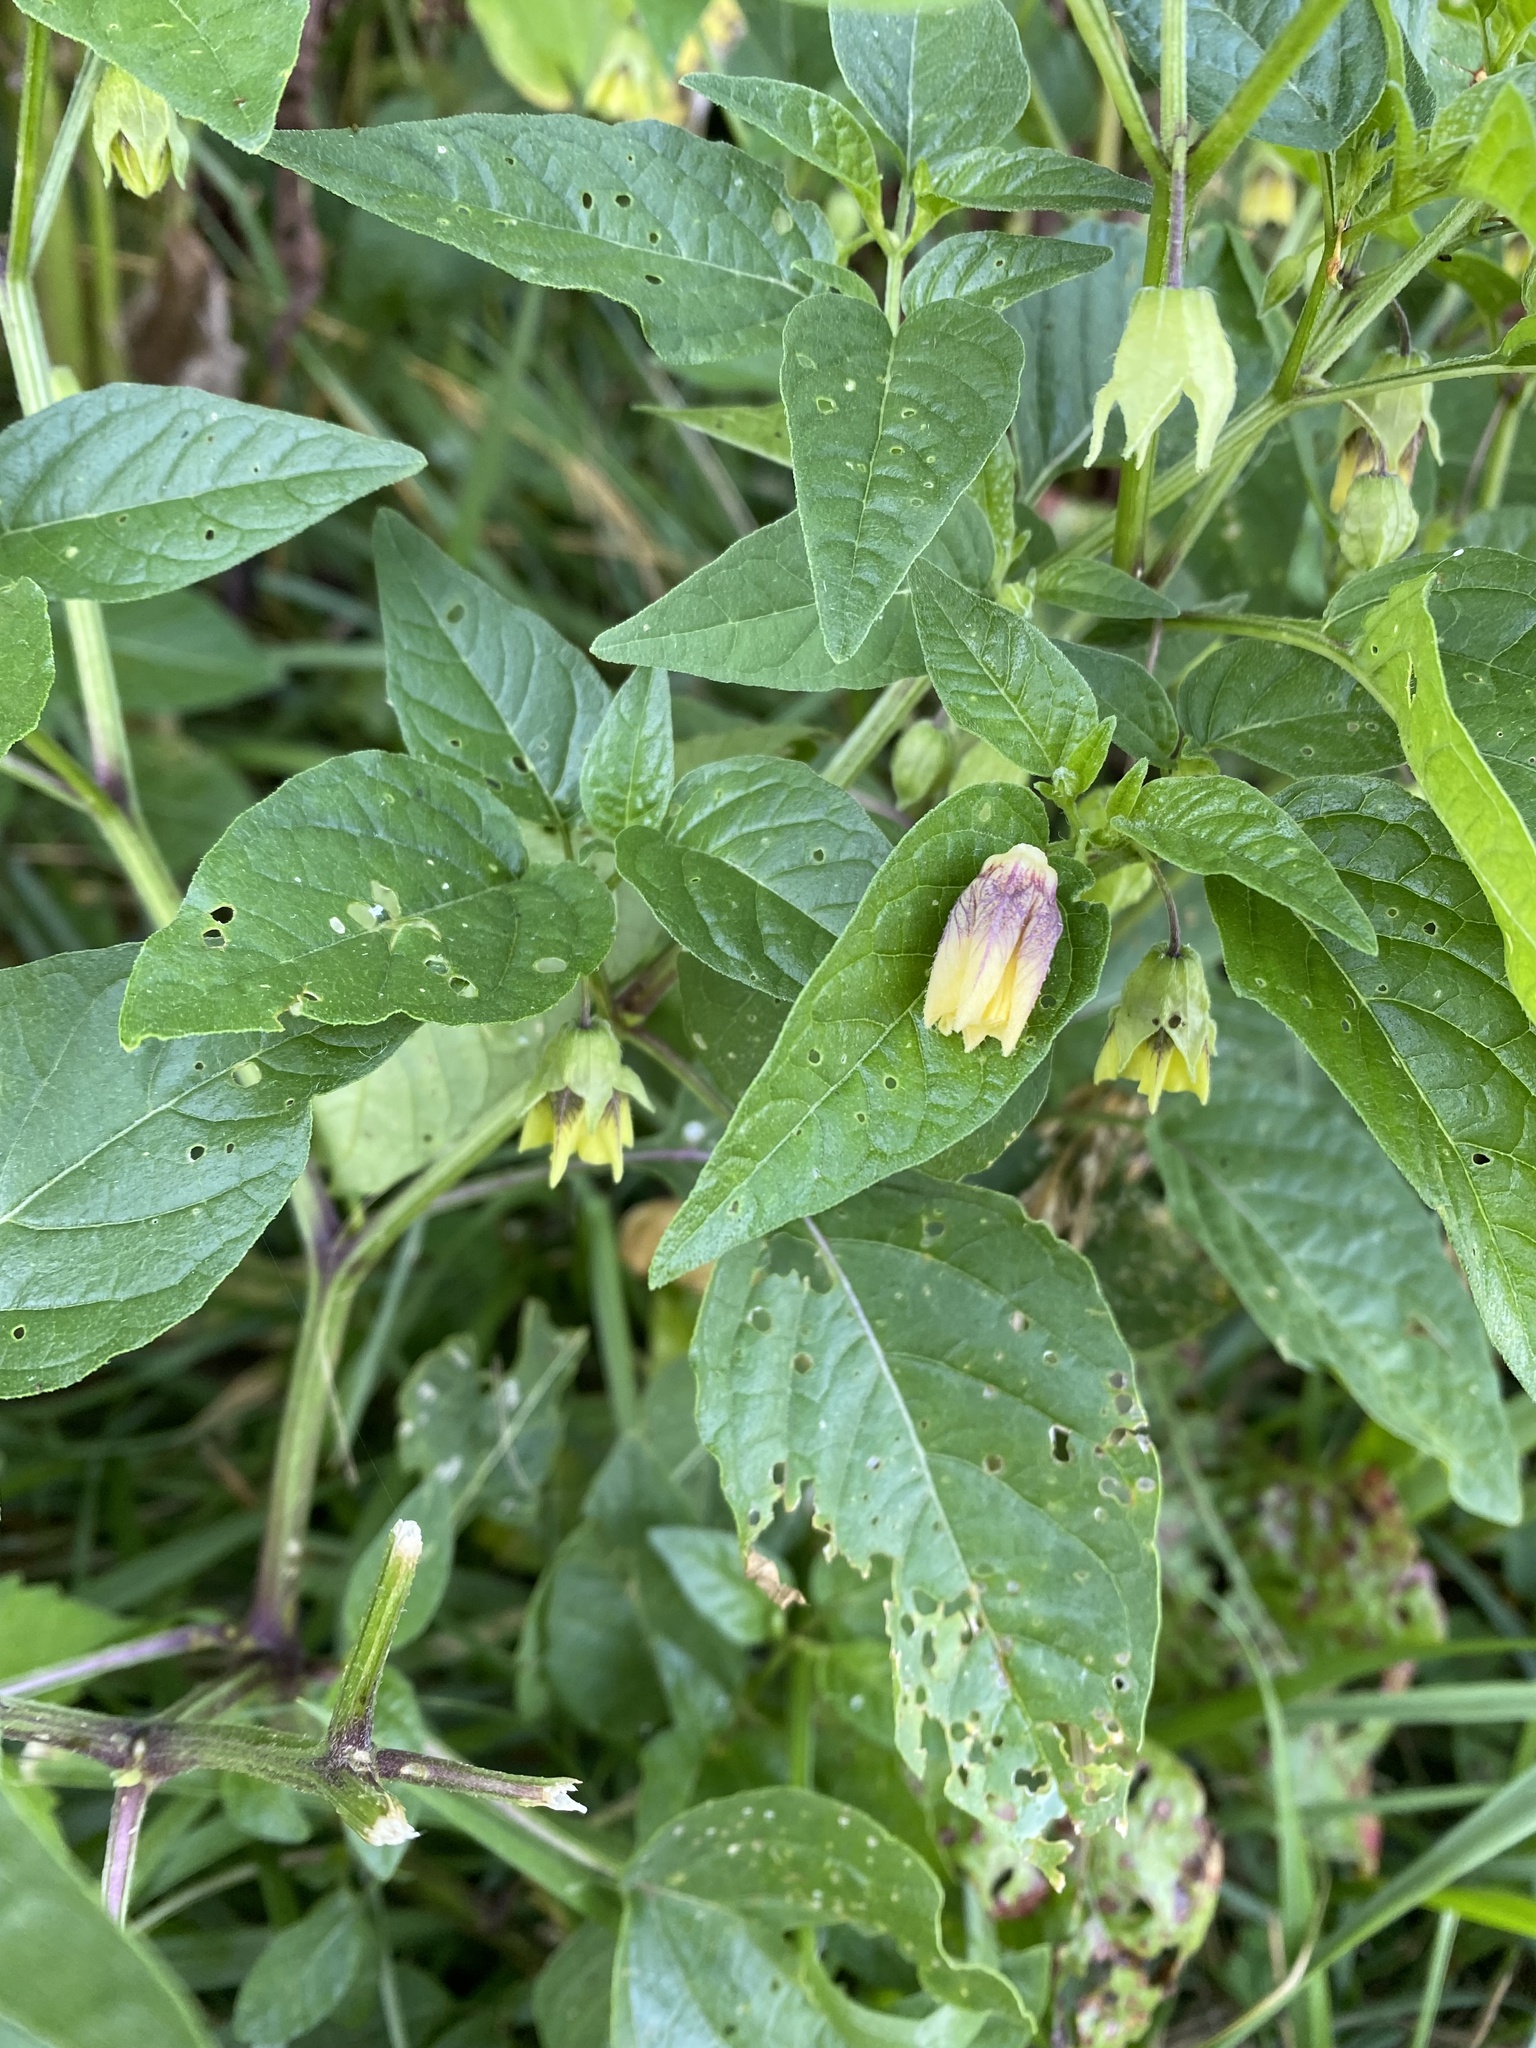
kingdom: Plantae
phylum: Tracheophyta
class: Magnoliopsida
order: Solanales
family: Solanaceae
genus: Physalis
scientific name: Physalis longifolia
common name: Common ground-cherry
